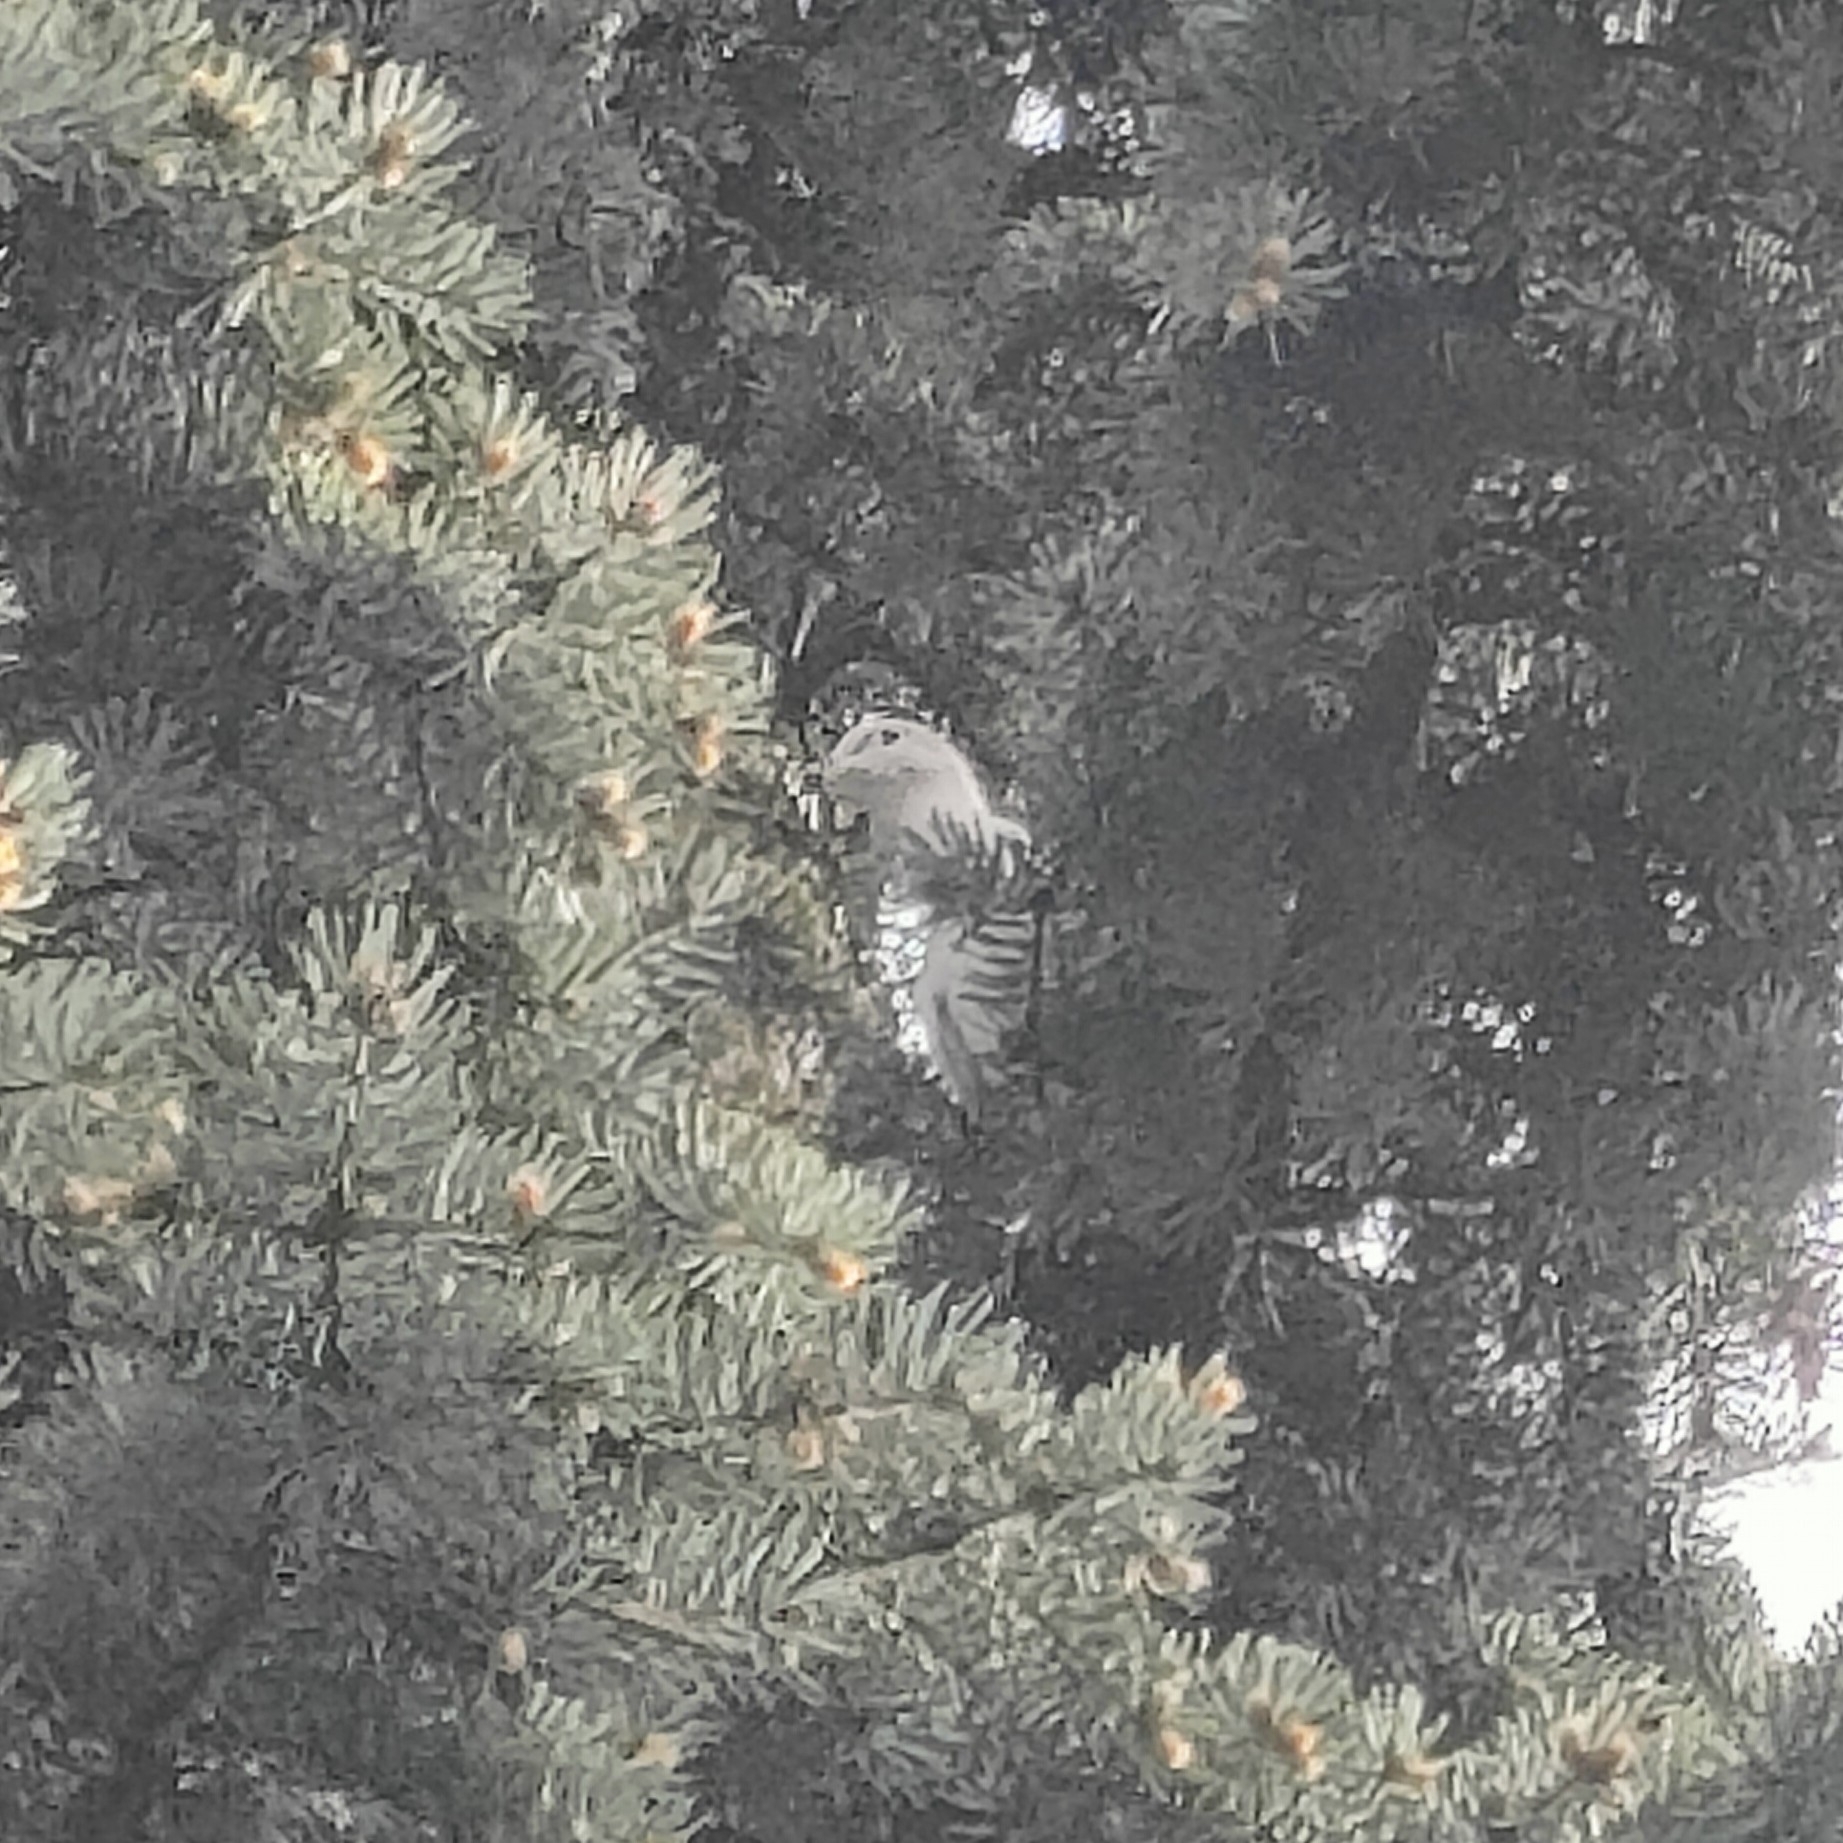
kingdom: Animalia
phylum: Chordata
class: Aves
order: Columbiformes
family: Columbidae
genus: Streptopelia
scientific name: Streptopelia decaocto
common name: Eurasian collared dove
